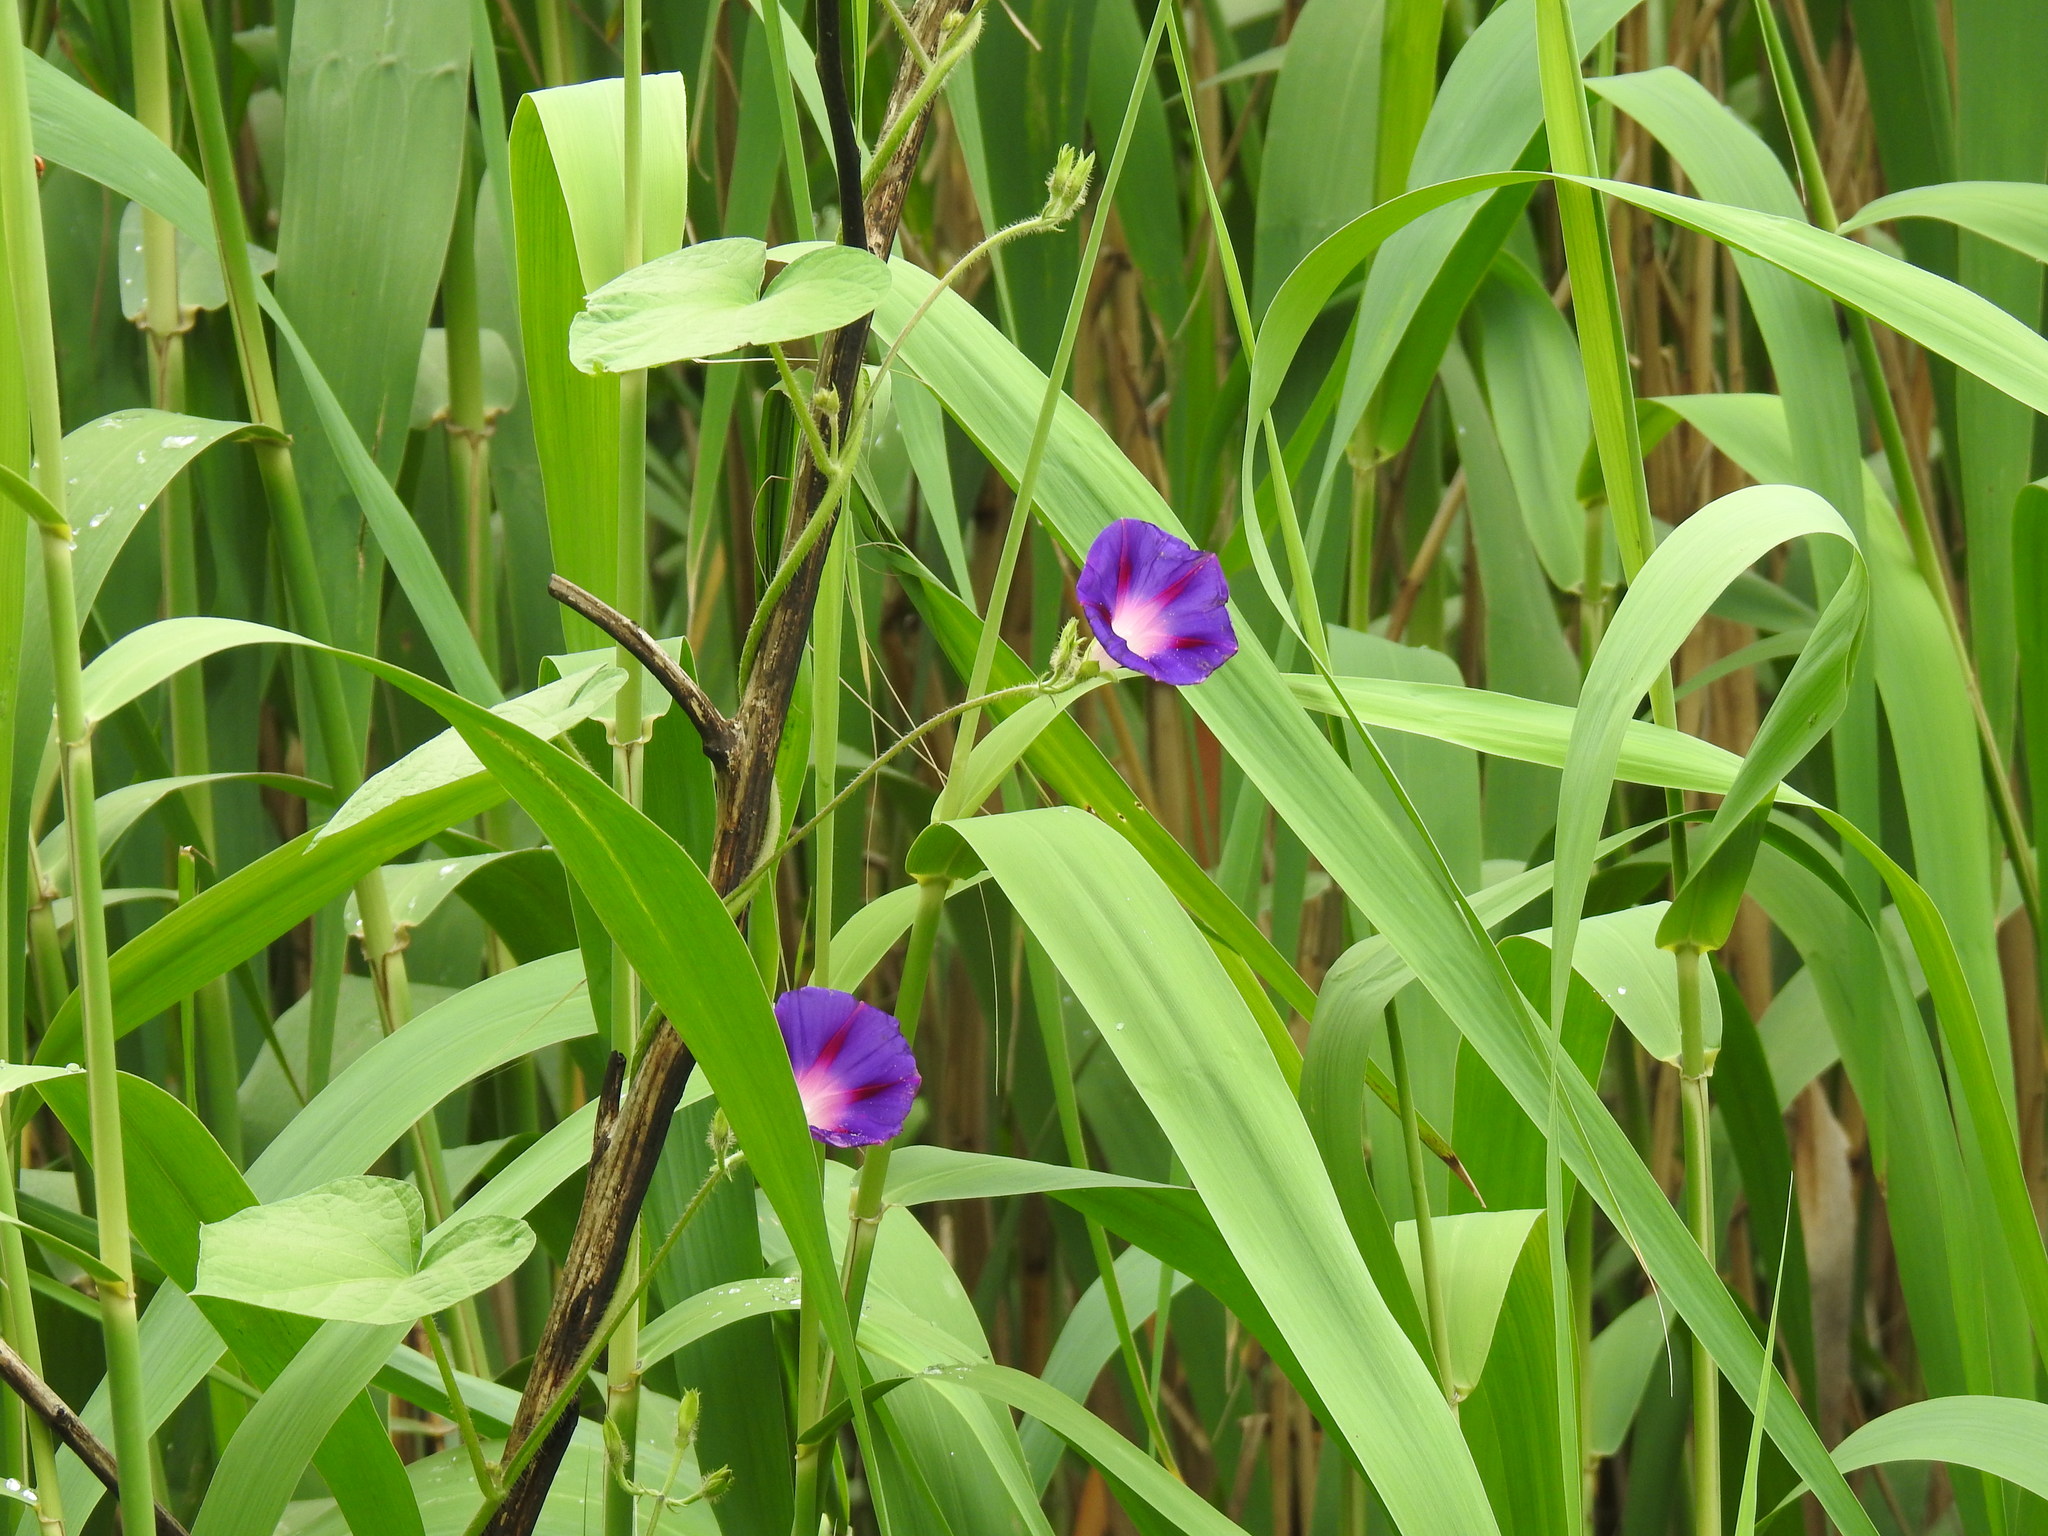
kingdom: Plantae
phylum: Tracheophyta
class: Magnoliopsida
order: Solanales
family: Convolvulaceae
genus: Ipomoea
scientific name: Ipomoea purpurea
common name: Common morning-glory
